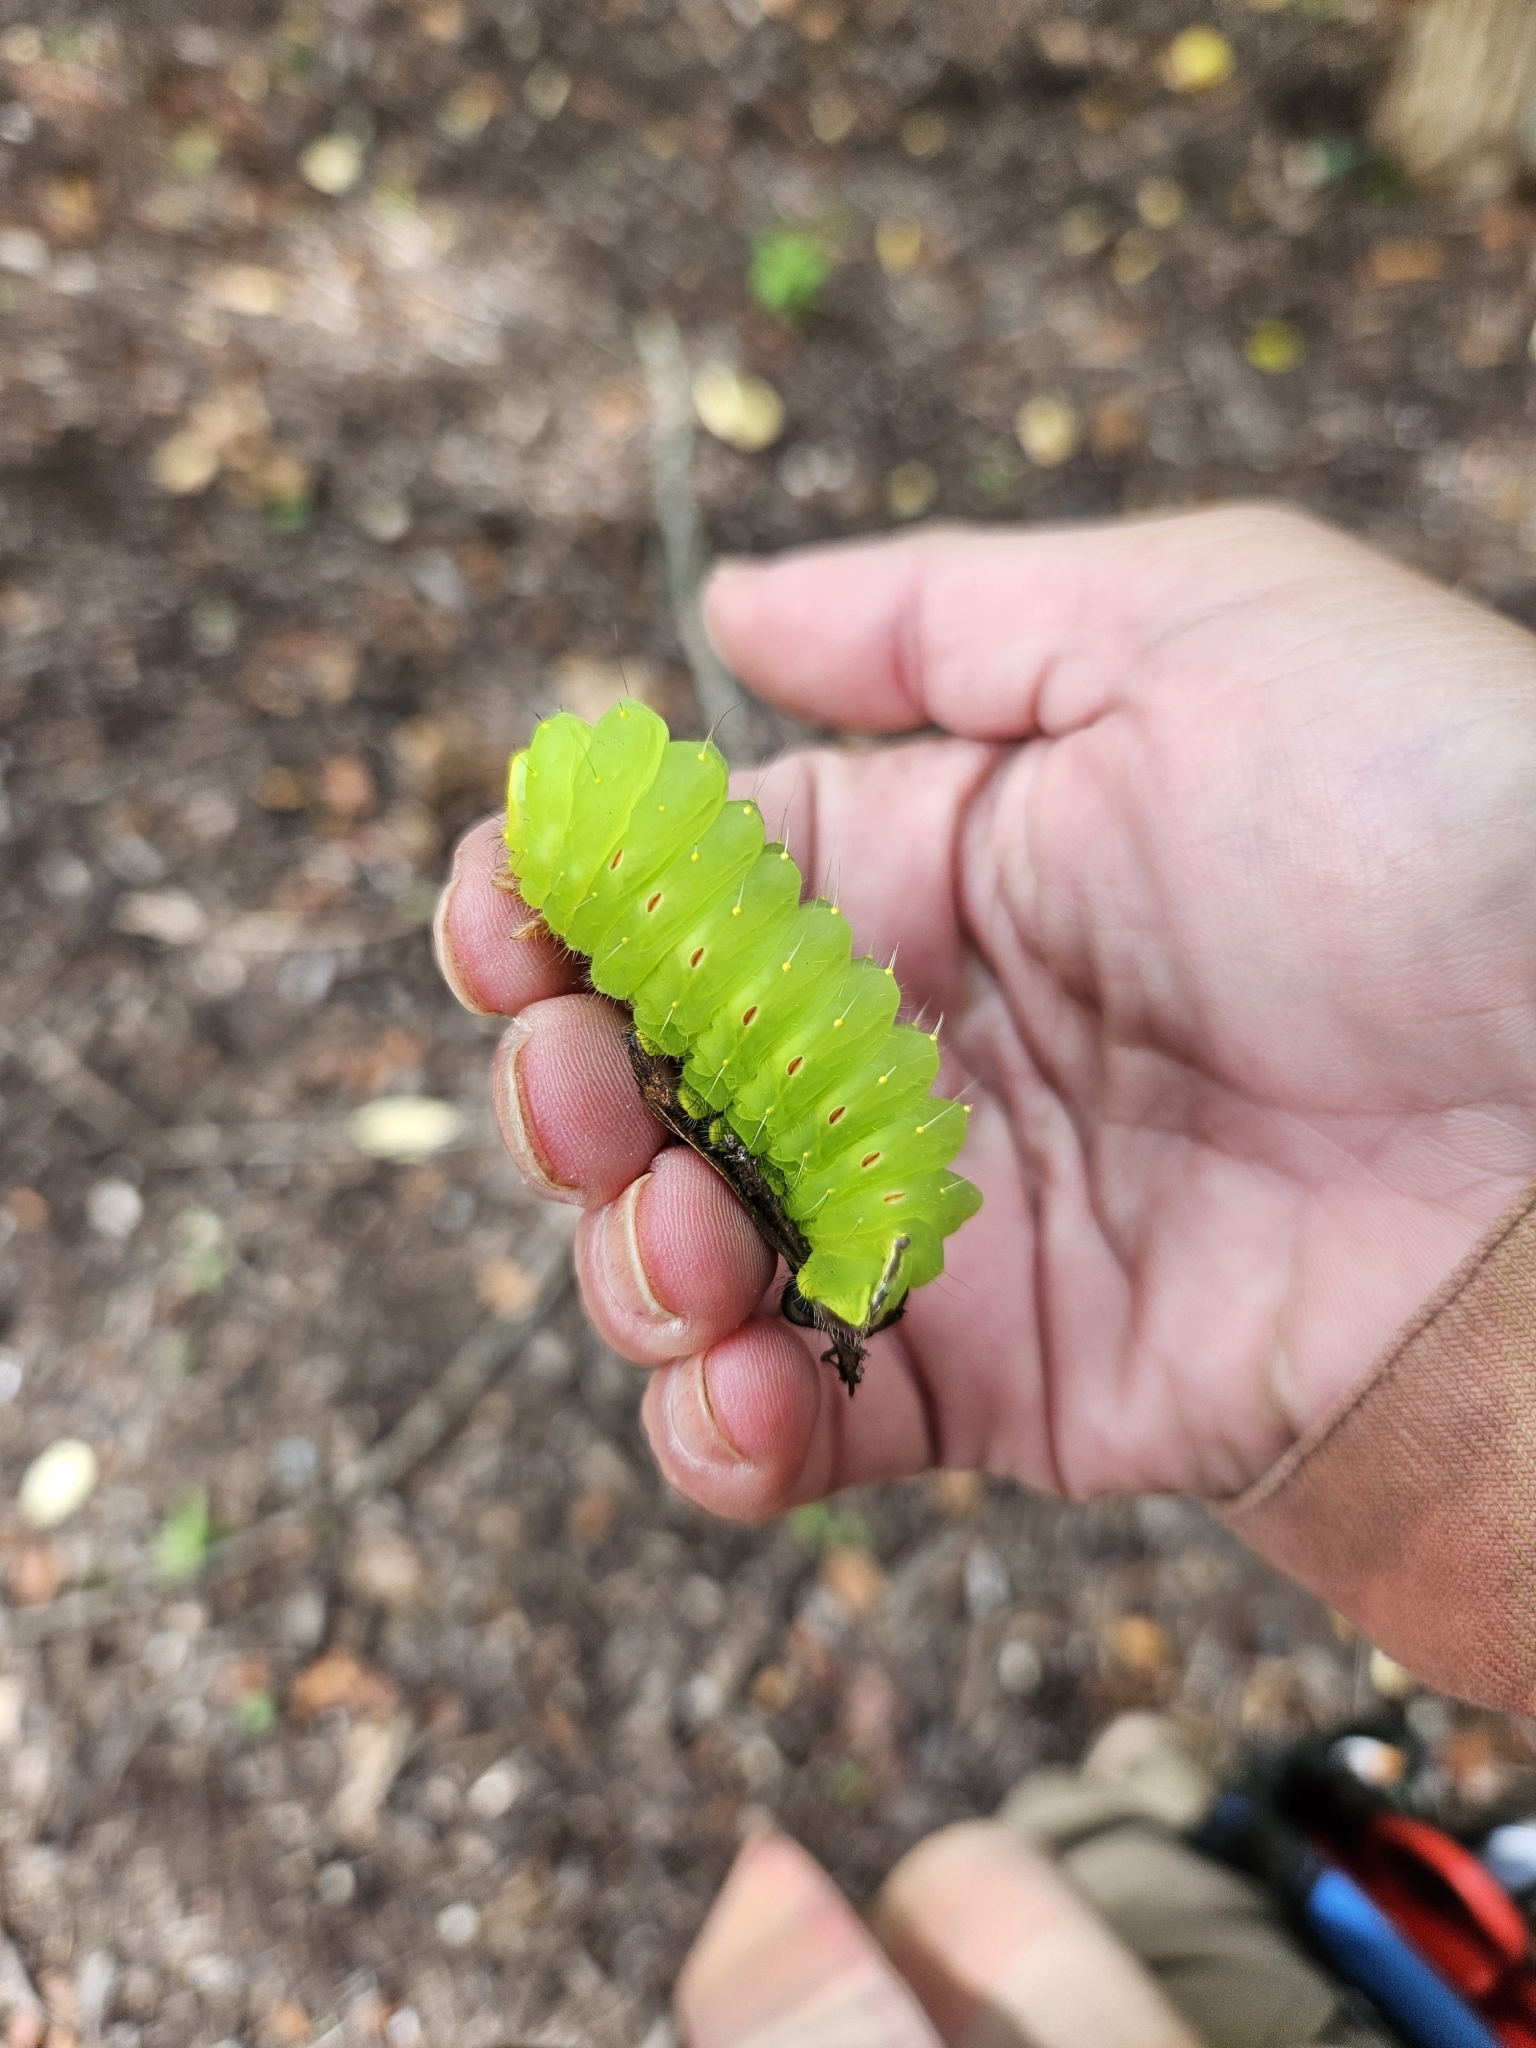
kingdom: Animalia
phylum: Arthropoda
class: Insecta
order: Lepidoptera
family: Saturniidae
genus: Antheraea
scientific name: Antheraea polyphemus
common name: Polyphemus moth
